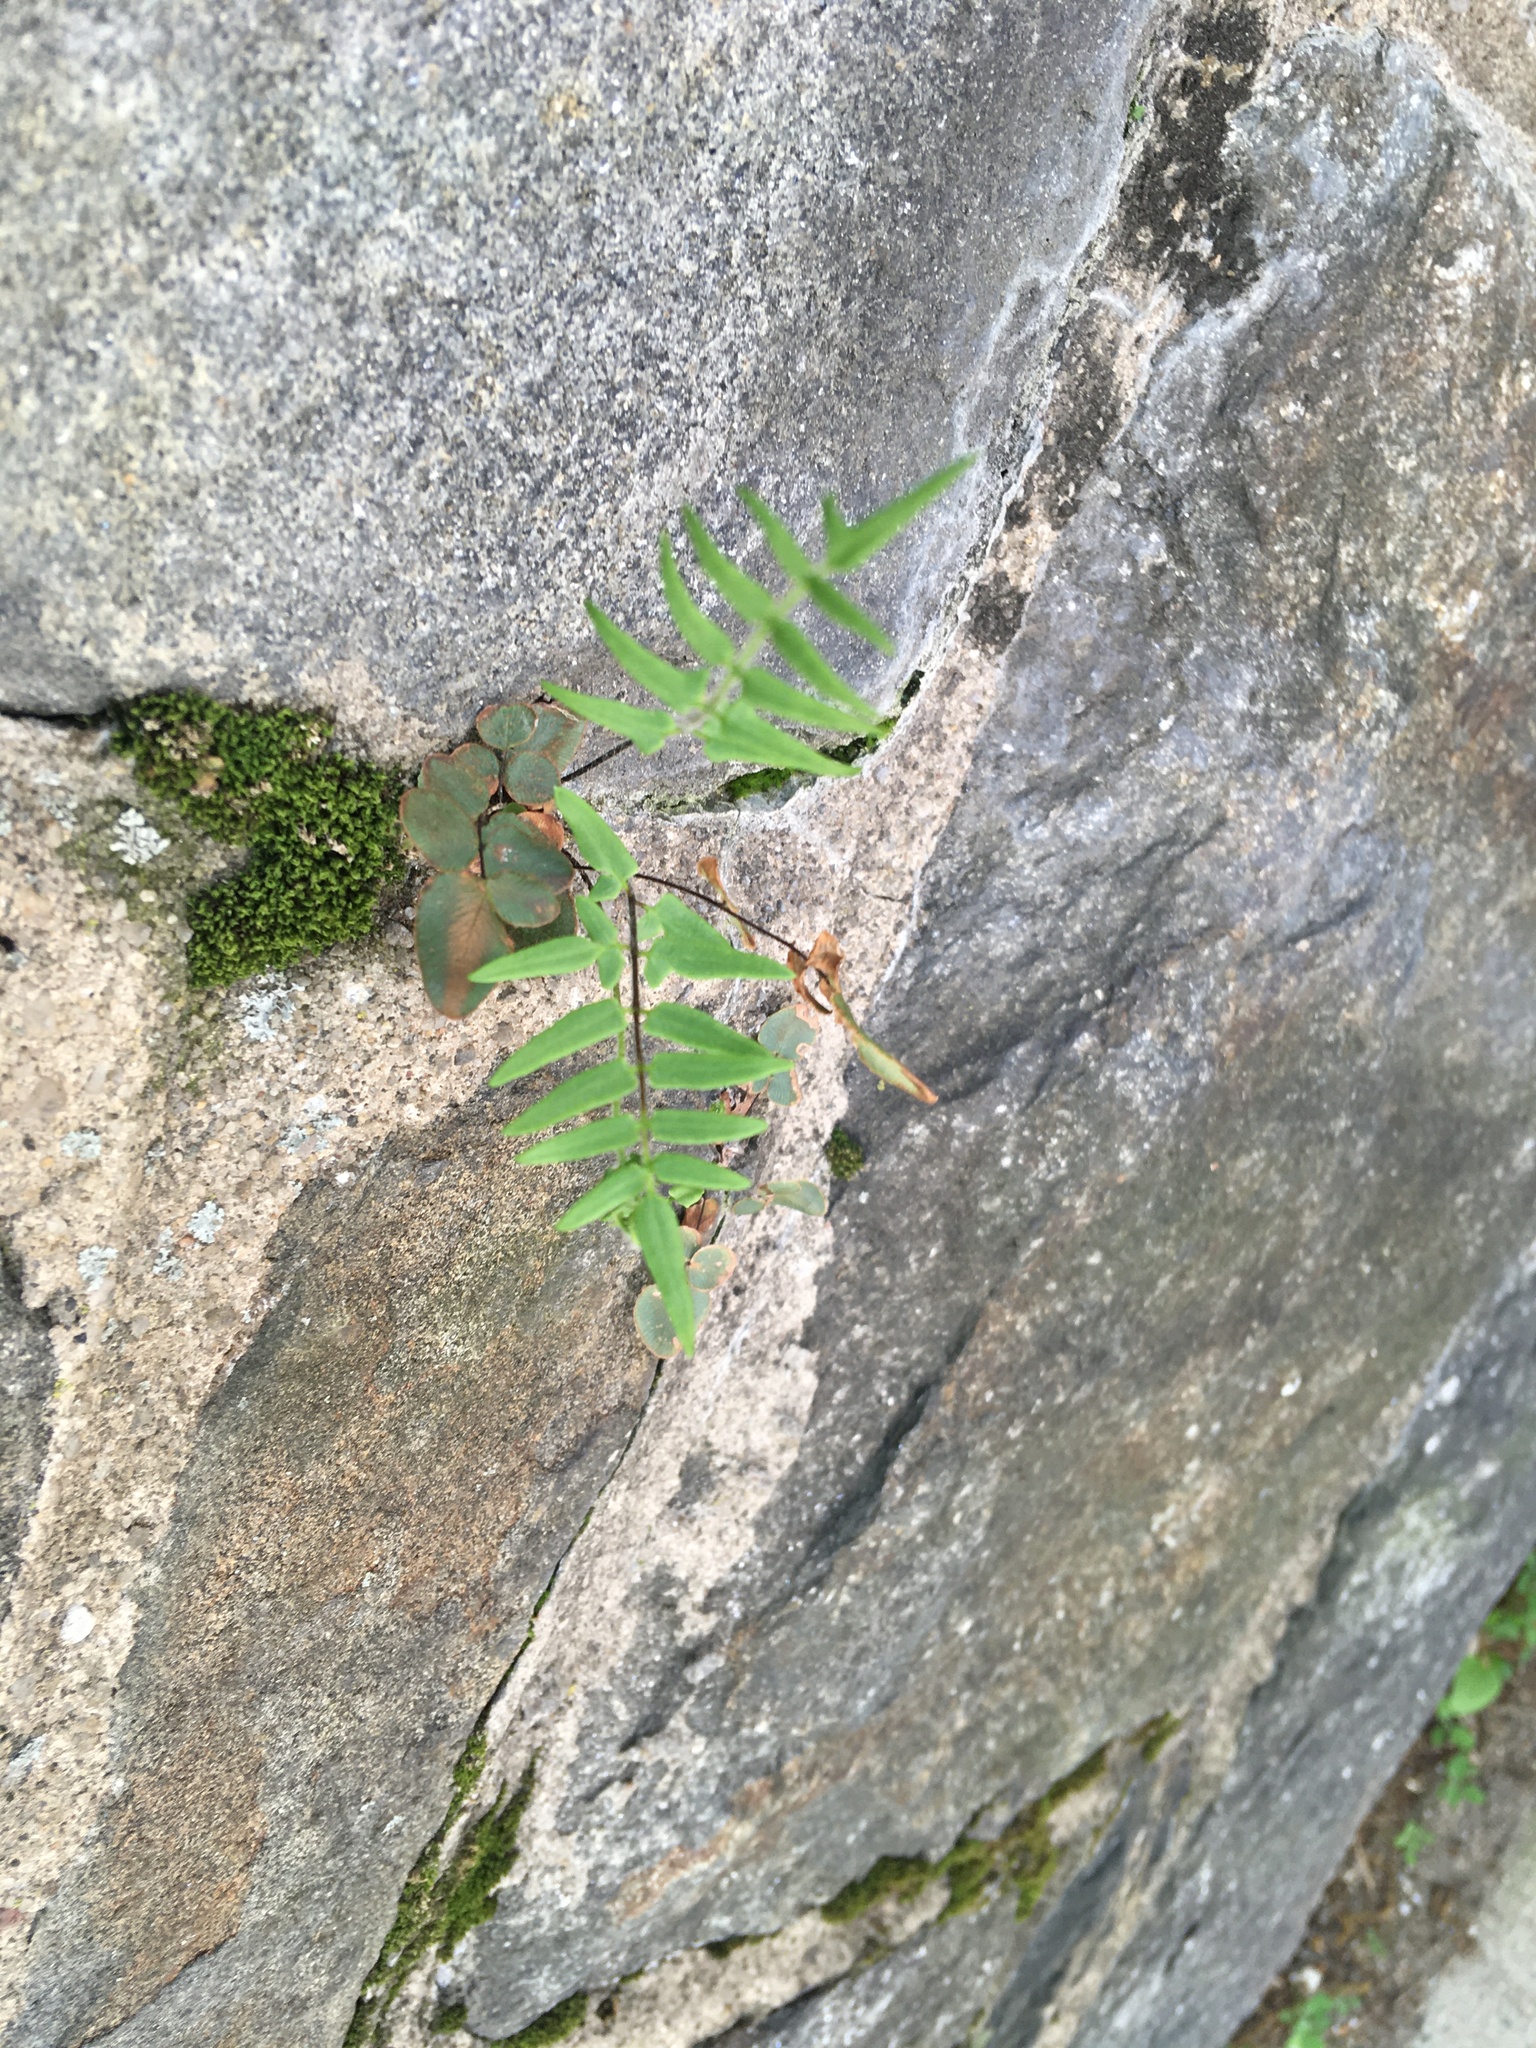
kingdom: Plantae
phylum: Tracheophyta
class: Polypodiopsida
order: Polypodiales
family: Pteridaceae
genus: Pellaea
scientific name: Pellaea atropurpurea
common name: Hairy cliffbrake
